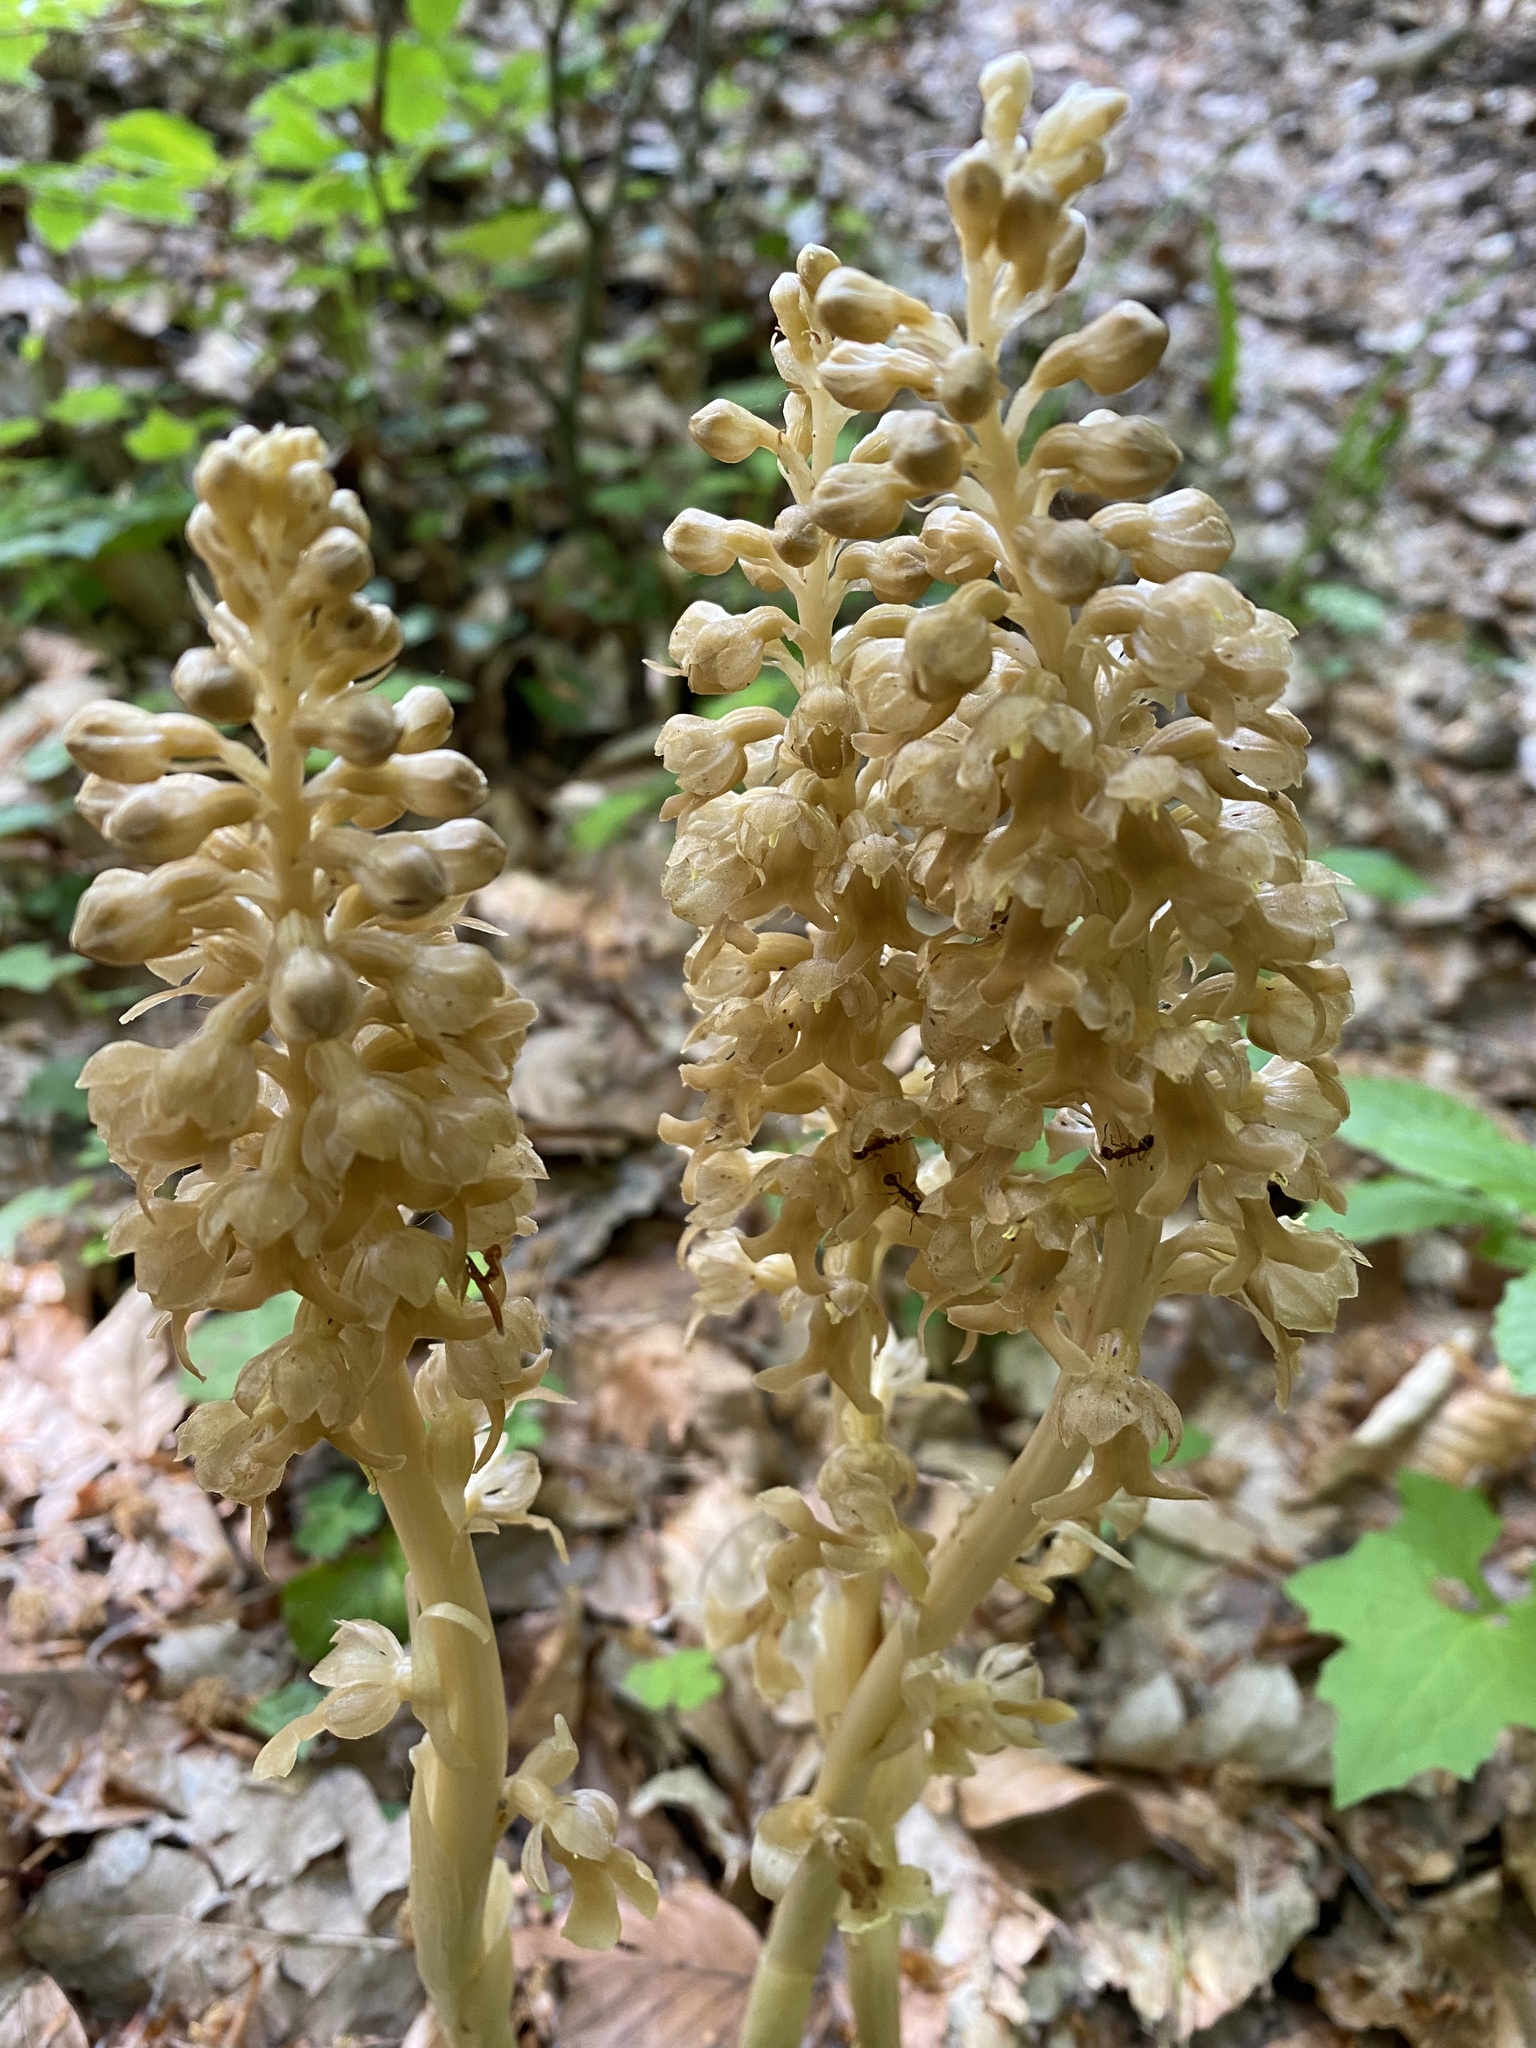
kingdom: Plantae
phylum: Tracheophyta
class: Liliopsida
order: Asparagales
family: Orchidaceae
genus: Neottia
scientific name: Neottia nidus-avis
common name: Bird's-nest orchid
